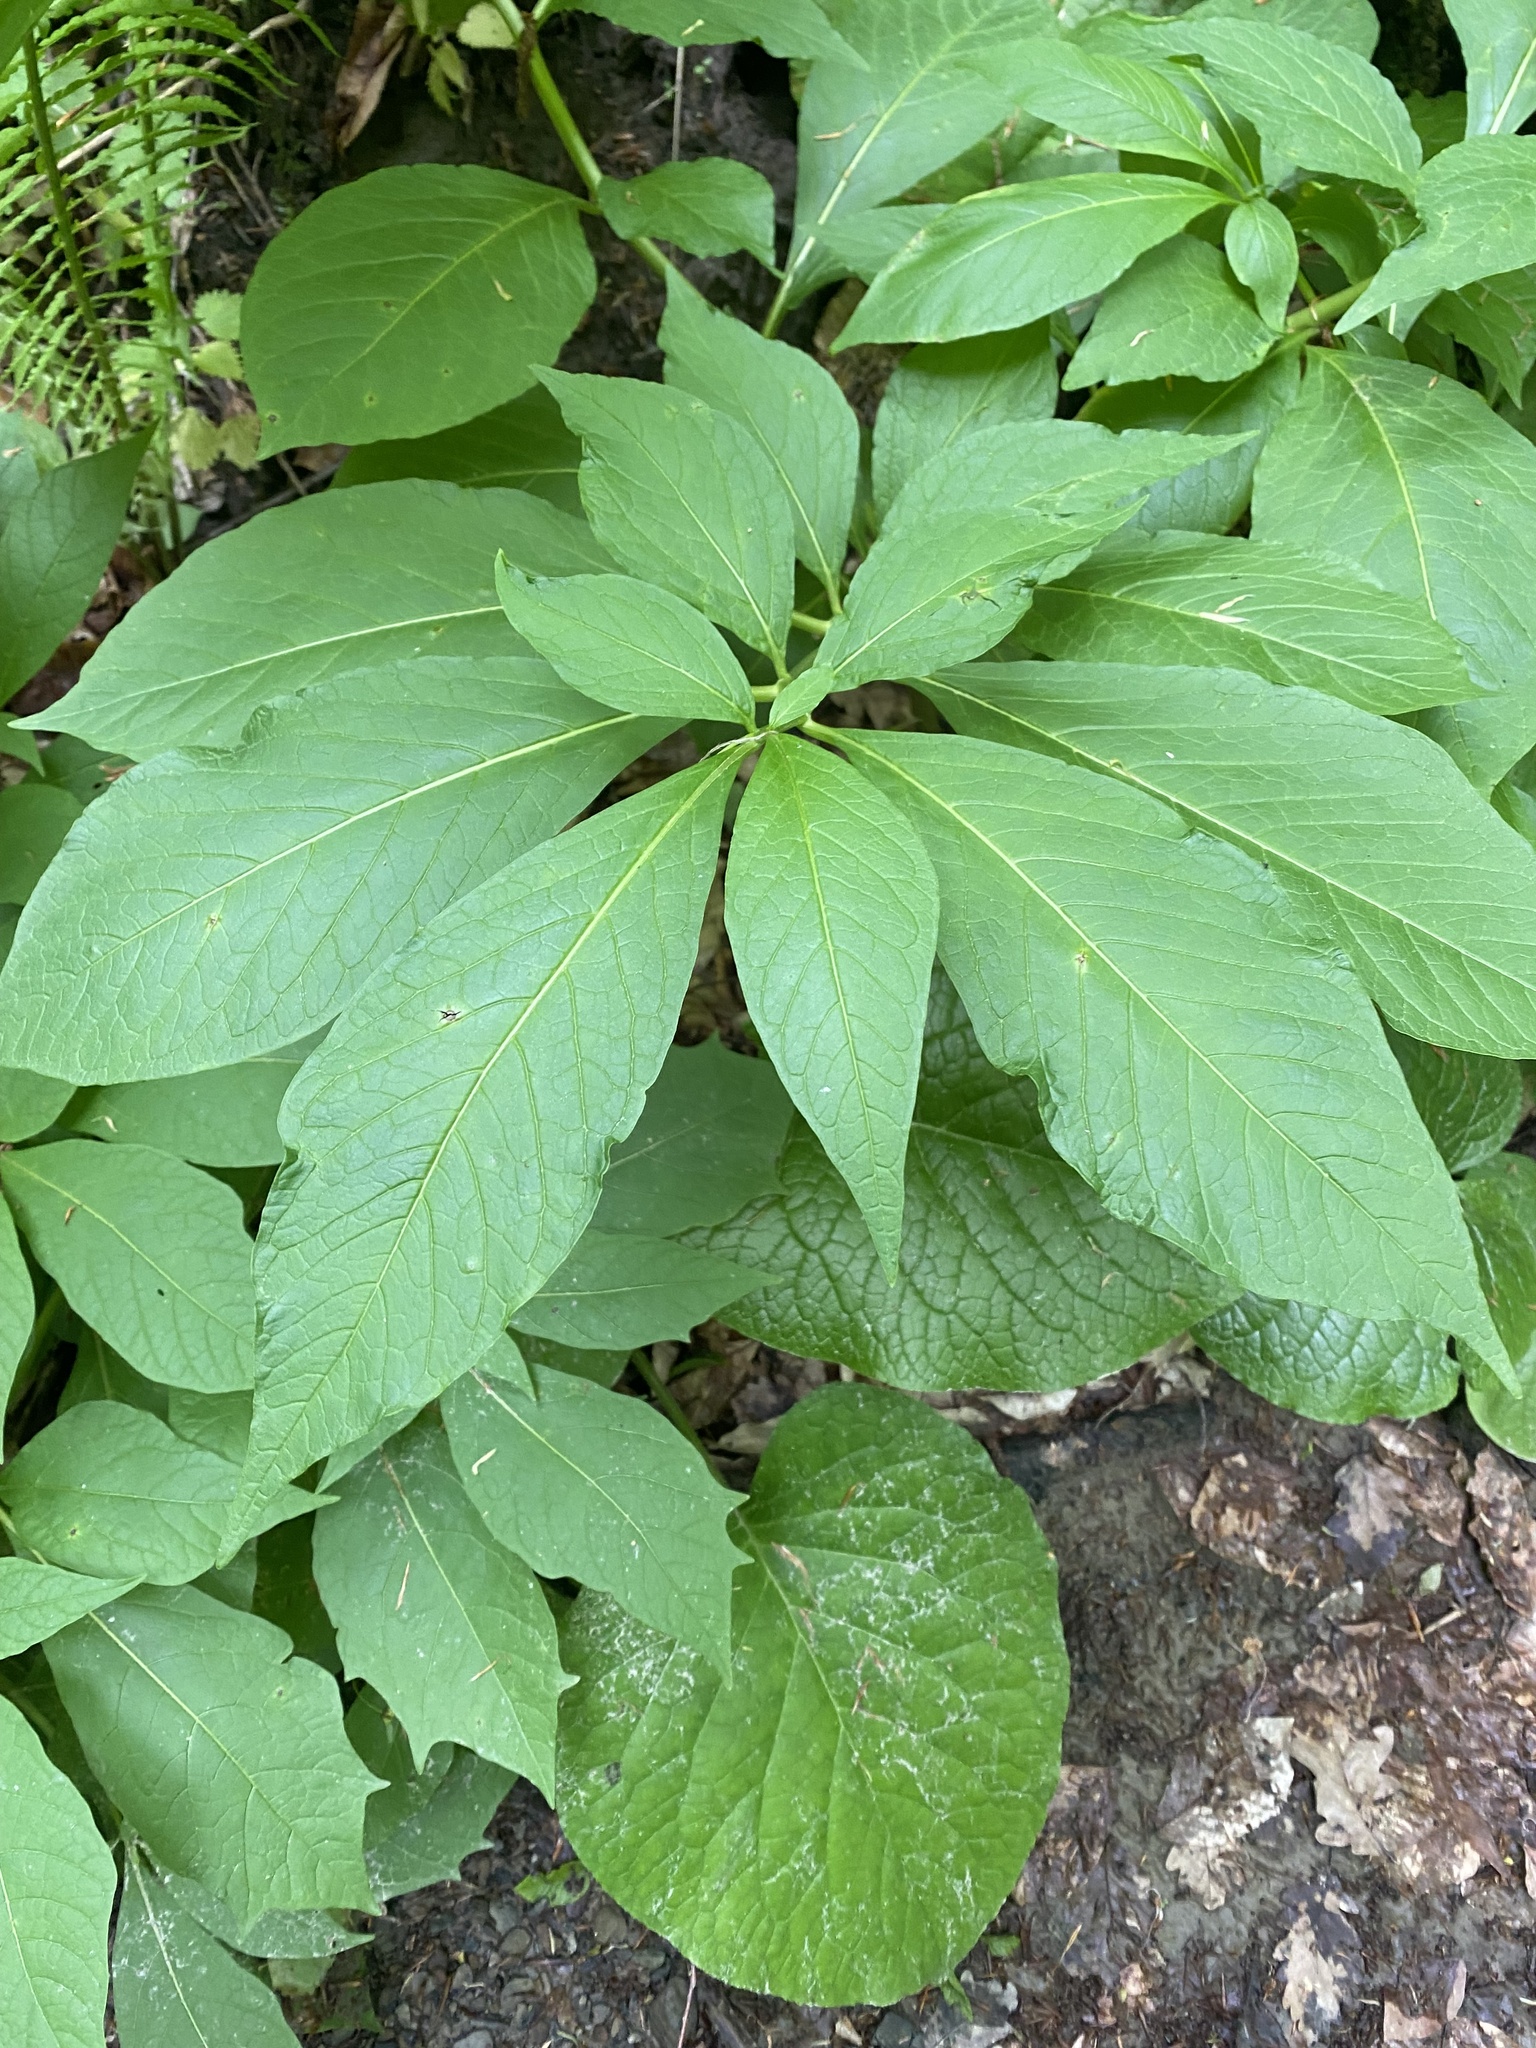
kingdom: Plantae
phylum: Tracheophyta
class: Magnoliopsida
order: Solanales
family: Solanaceae
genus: Scopolia
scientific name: Scopolia carniolica
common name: Scopolia
